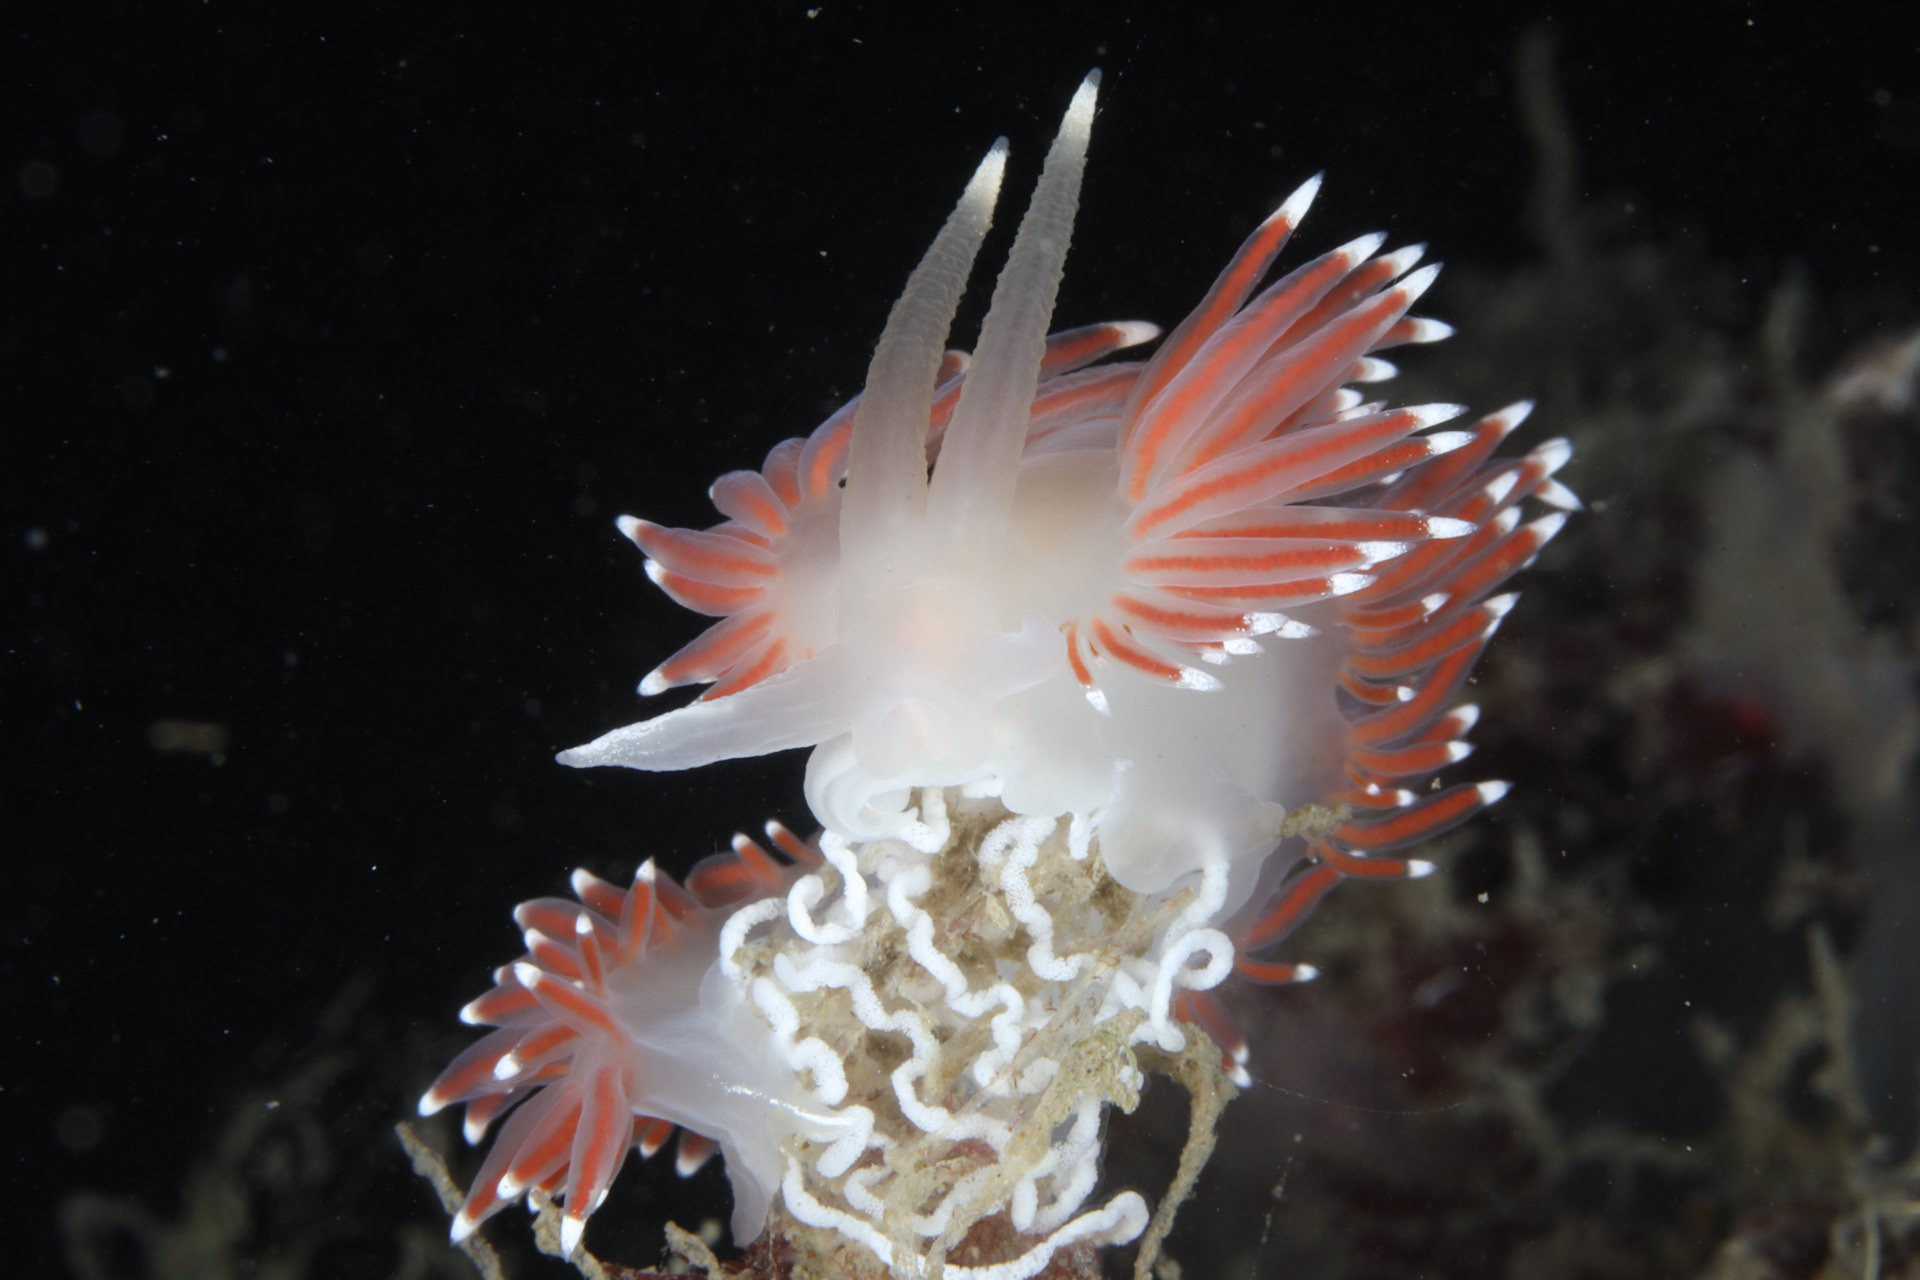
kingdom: Animalia
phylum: Mollusca
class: Gastropoda
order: Nudibranchia
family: Coryphellidae
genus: Coryphella
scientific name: Coryphella nobilis
